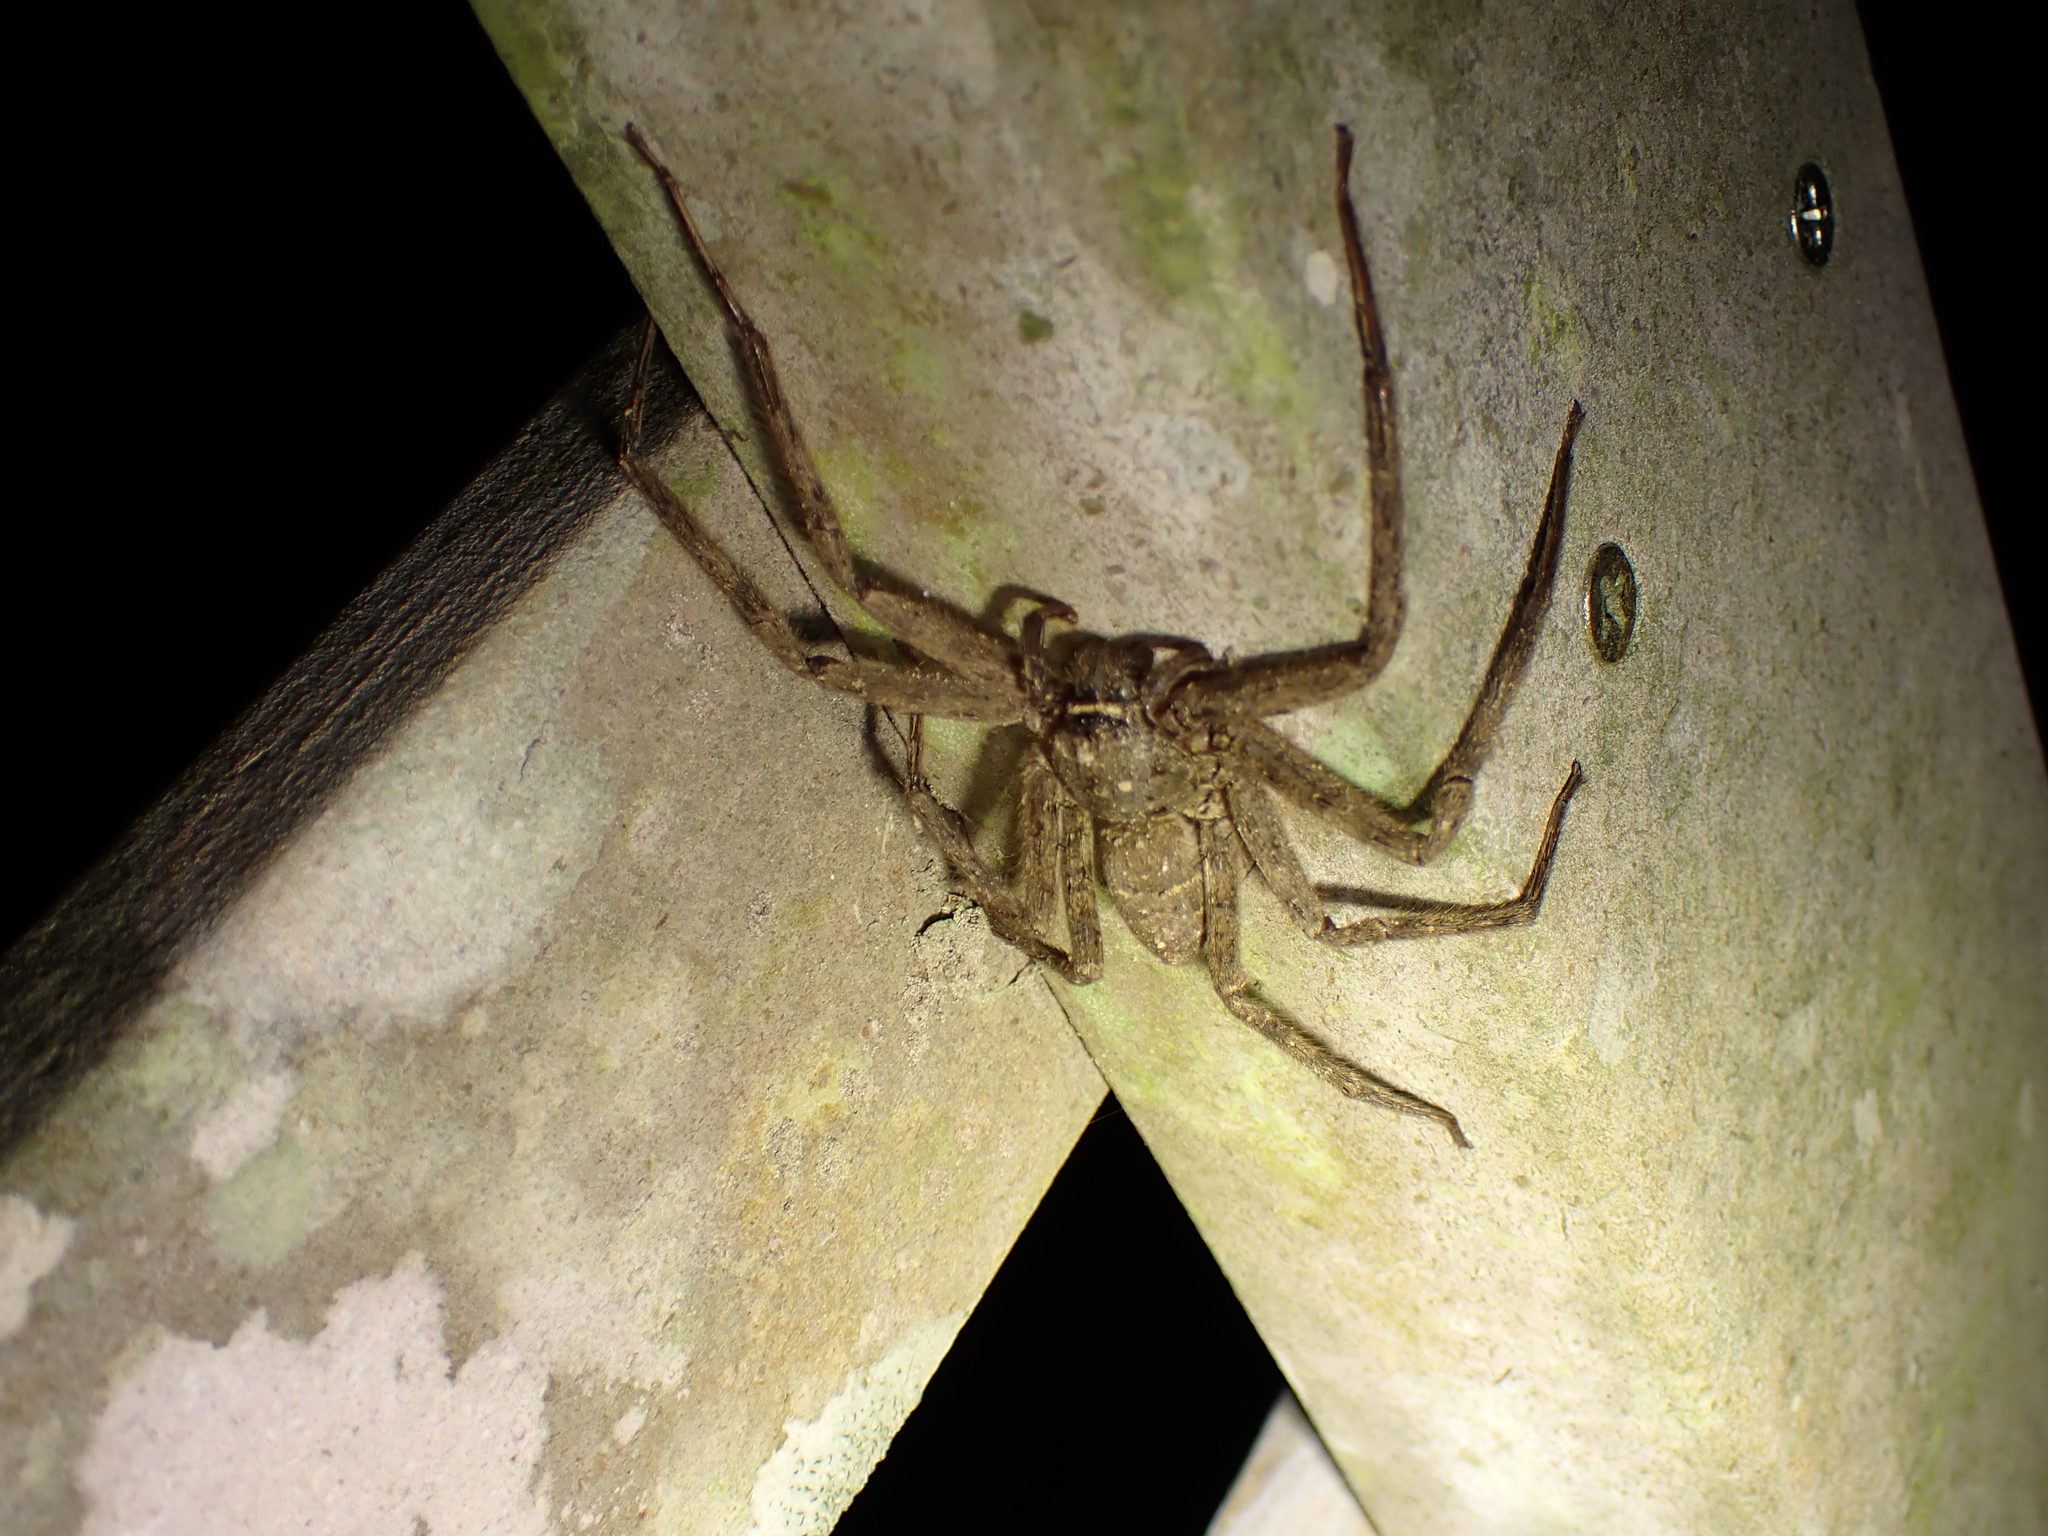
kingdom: Animalia
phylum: Arthropoda
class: Arachnida
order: Araneae
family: Sparassidae
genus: Heteropoda
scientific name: Heteropoda venatoria
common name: Huntsman spider
